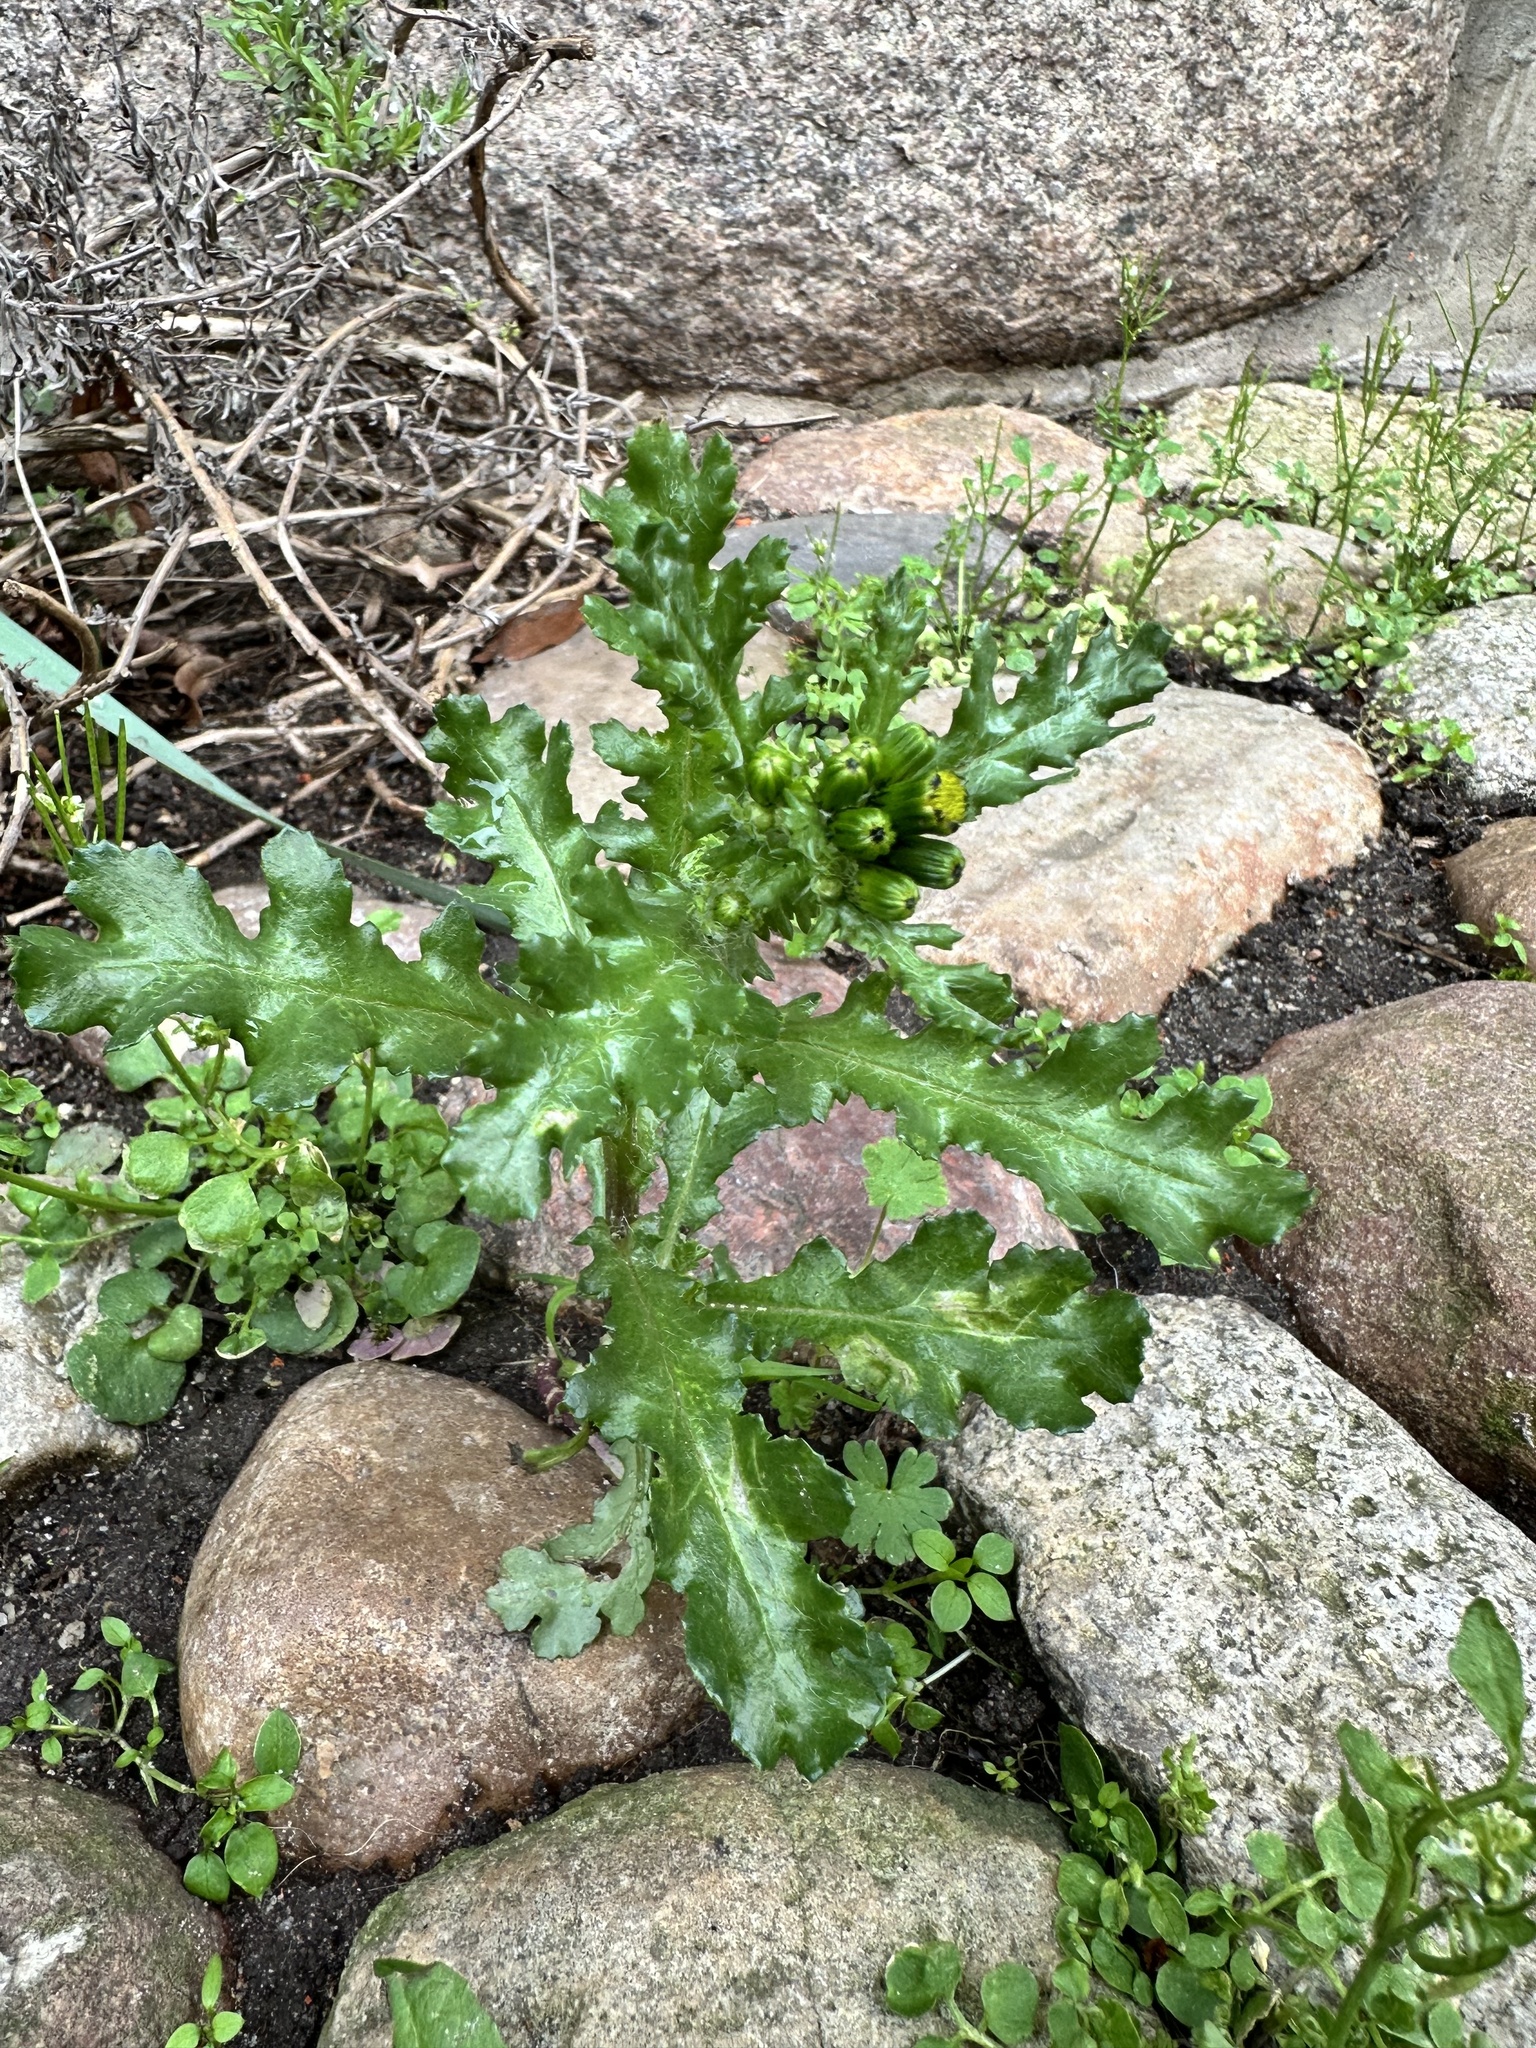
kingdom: Plantae
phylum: Tracheophyta
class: Magnoliopsida
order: Asterales
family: Asteraceae
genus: Senecio
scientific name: Senecio vulgaris
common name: Old-man-in-the-spring
